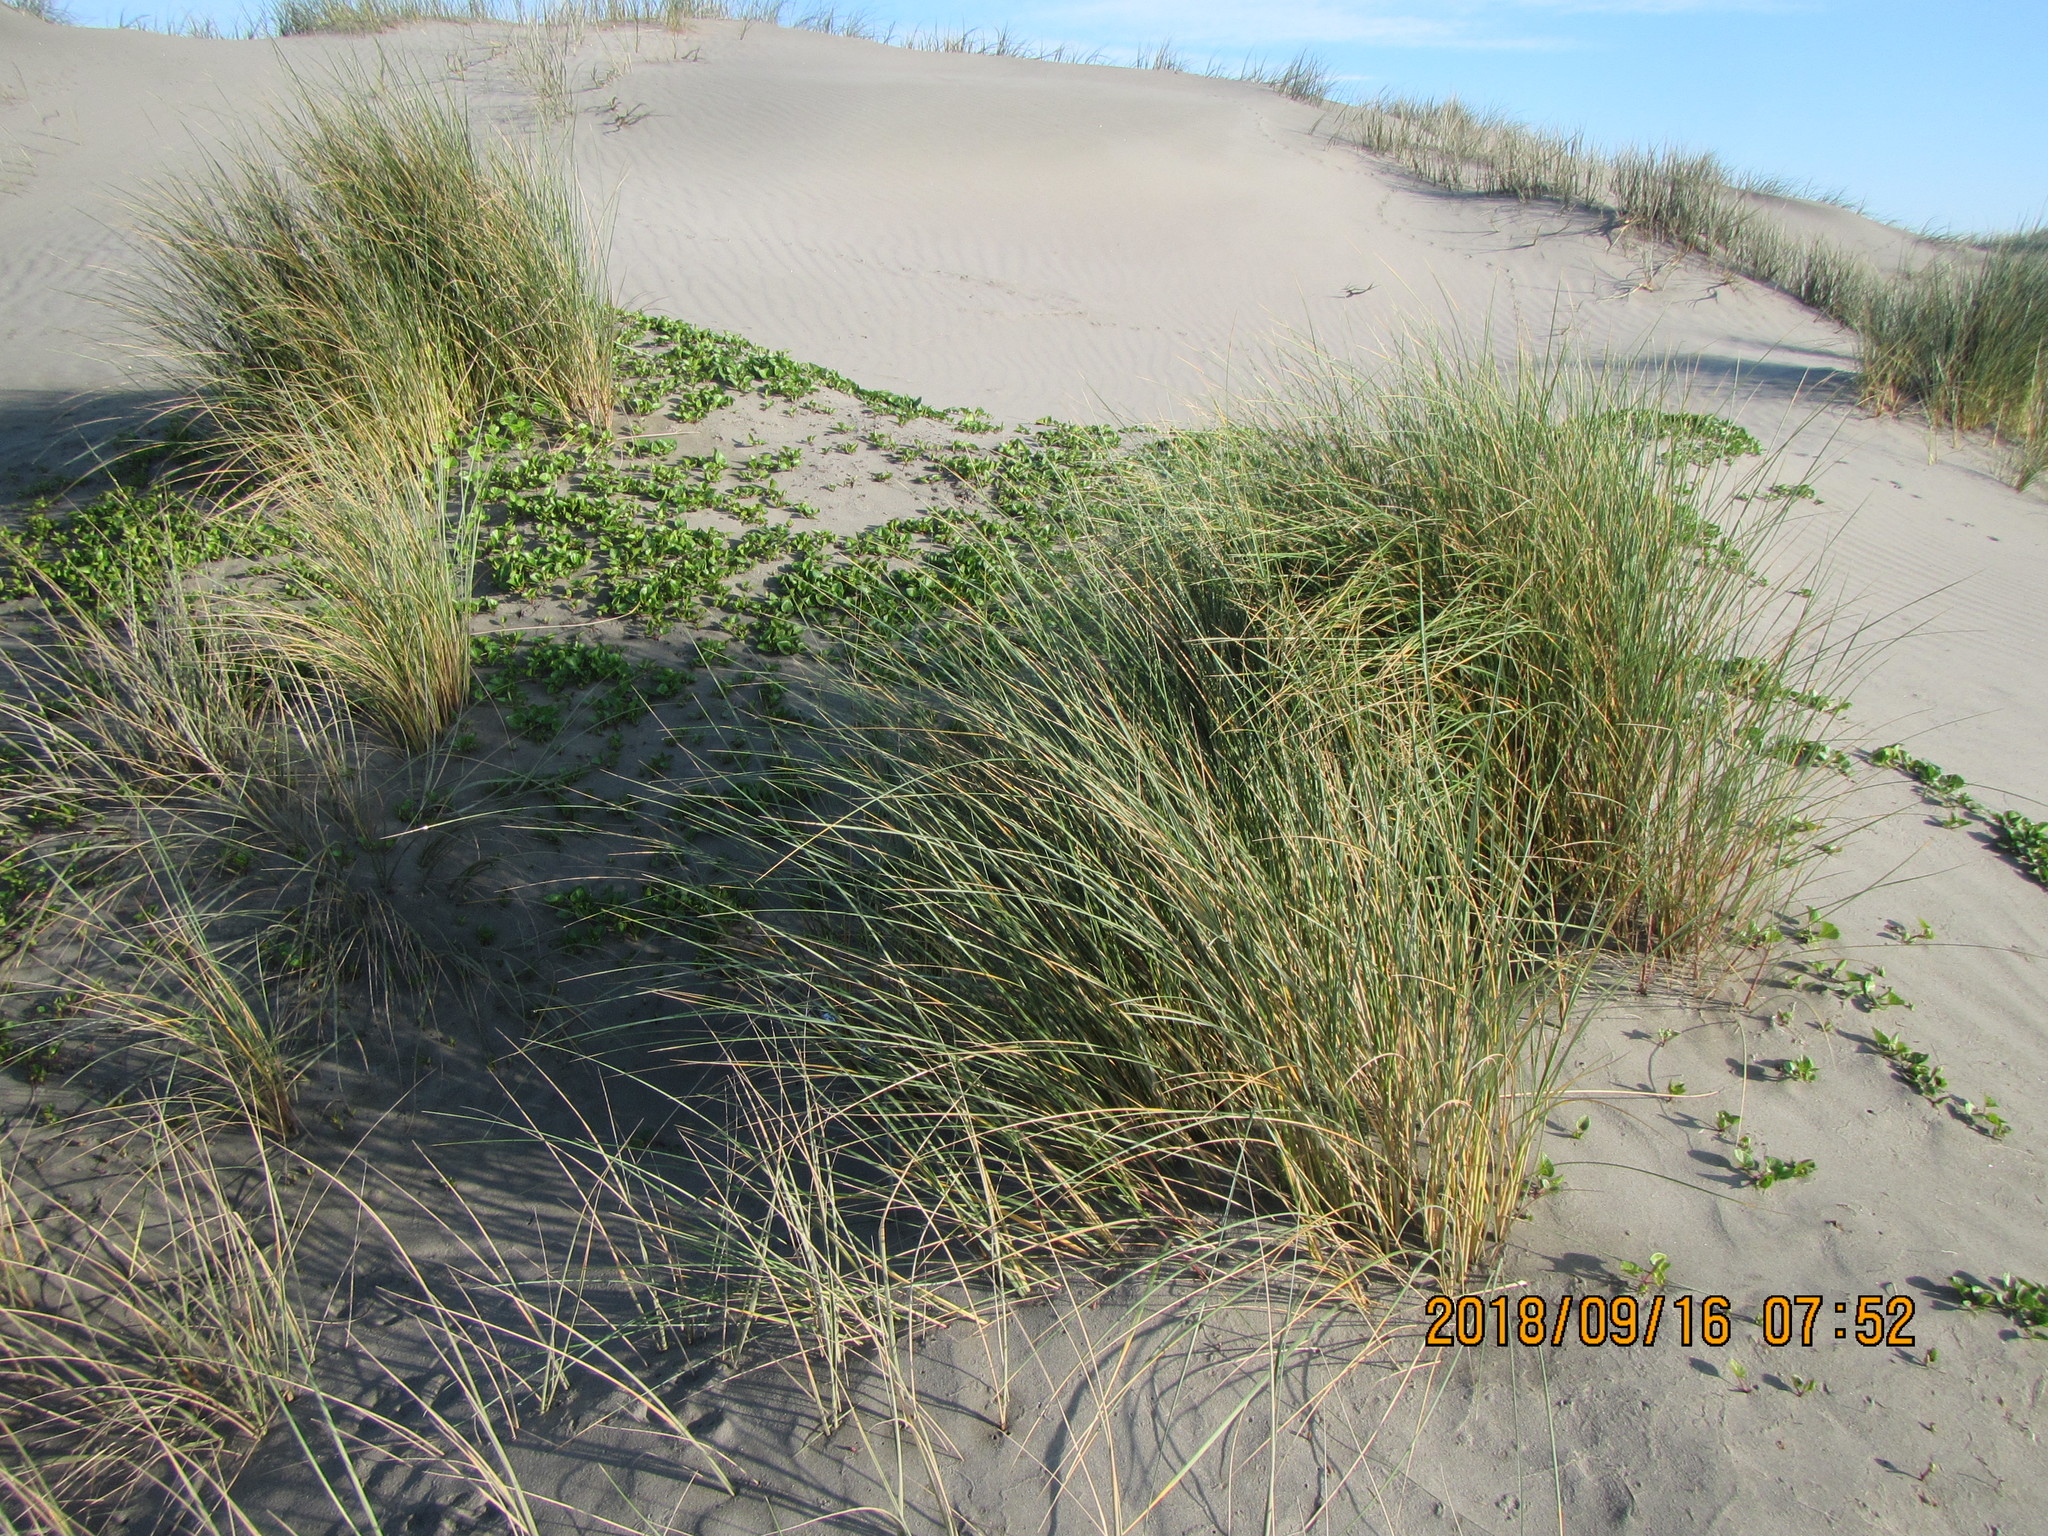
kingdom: Plantae
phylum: Tracheophyta
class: Liliopsida
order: Poales
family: Poaceae
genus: Calamagrostis
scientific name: Calamagrostis arenaria
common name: European beachgrass
